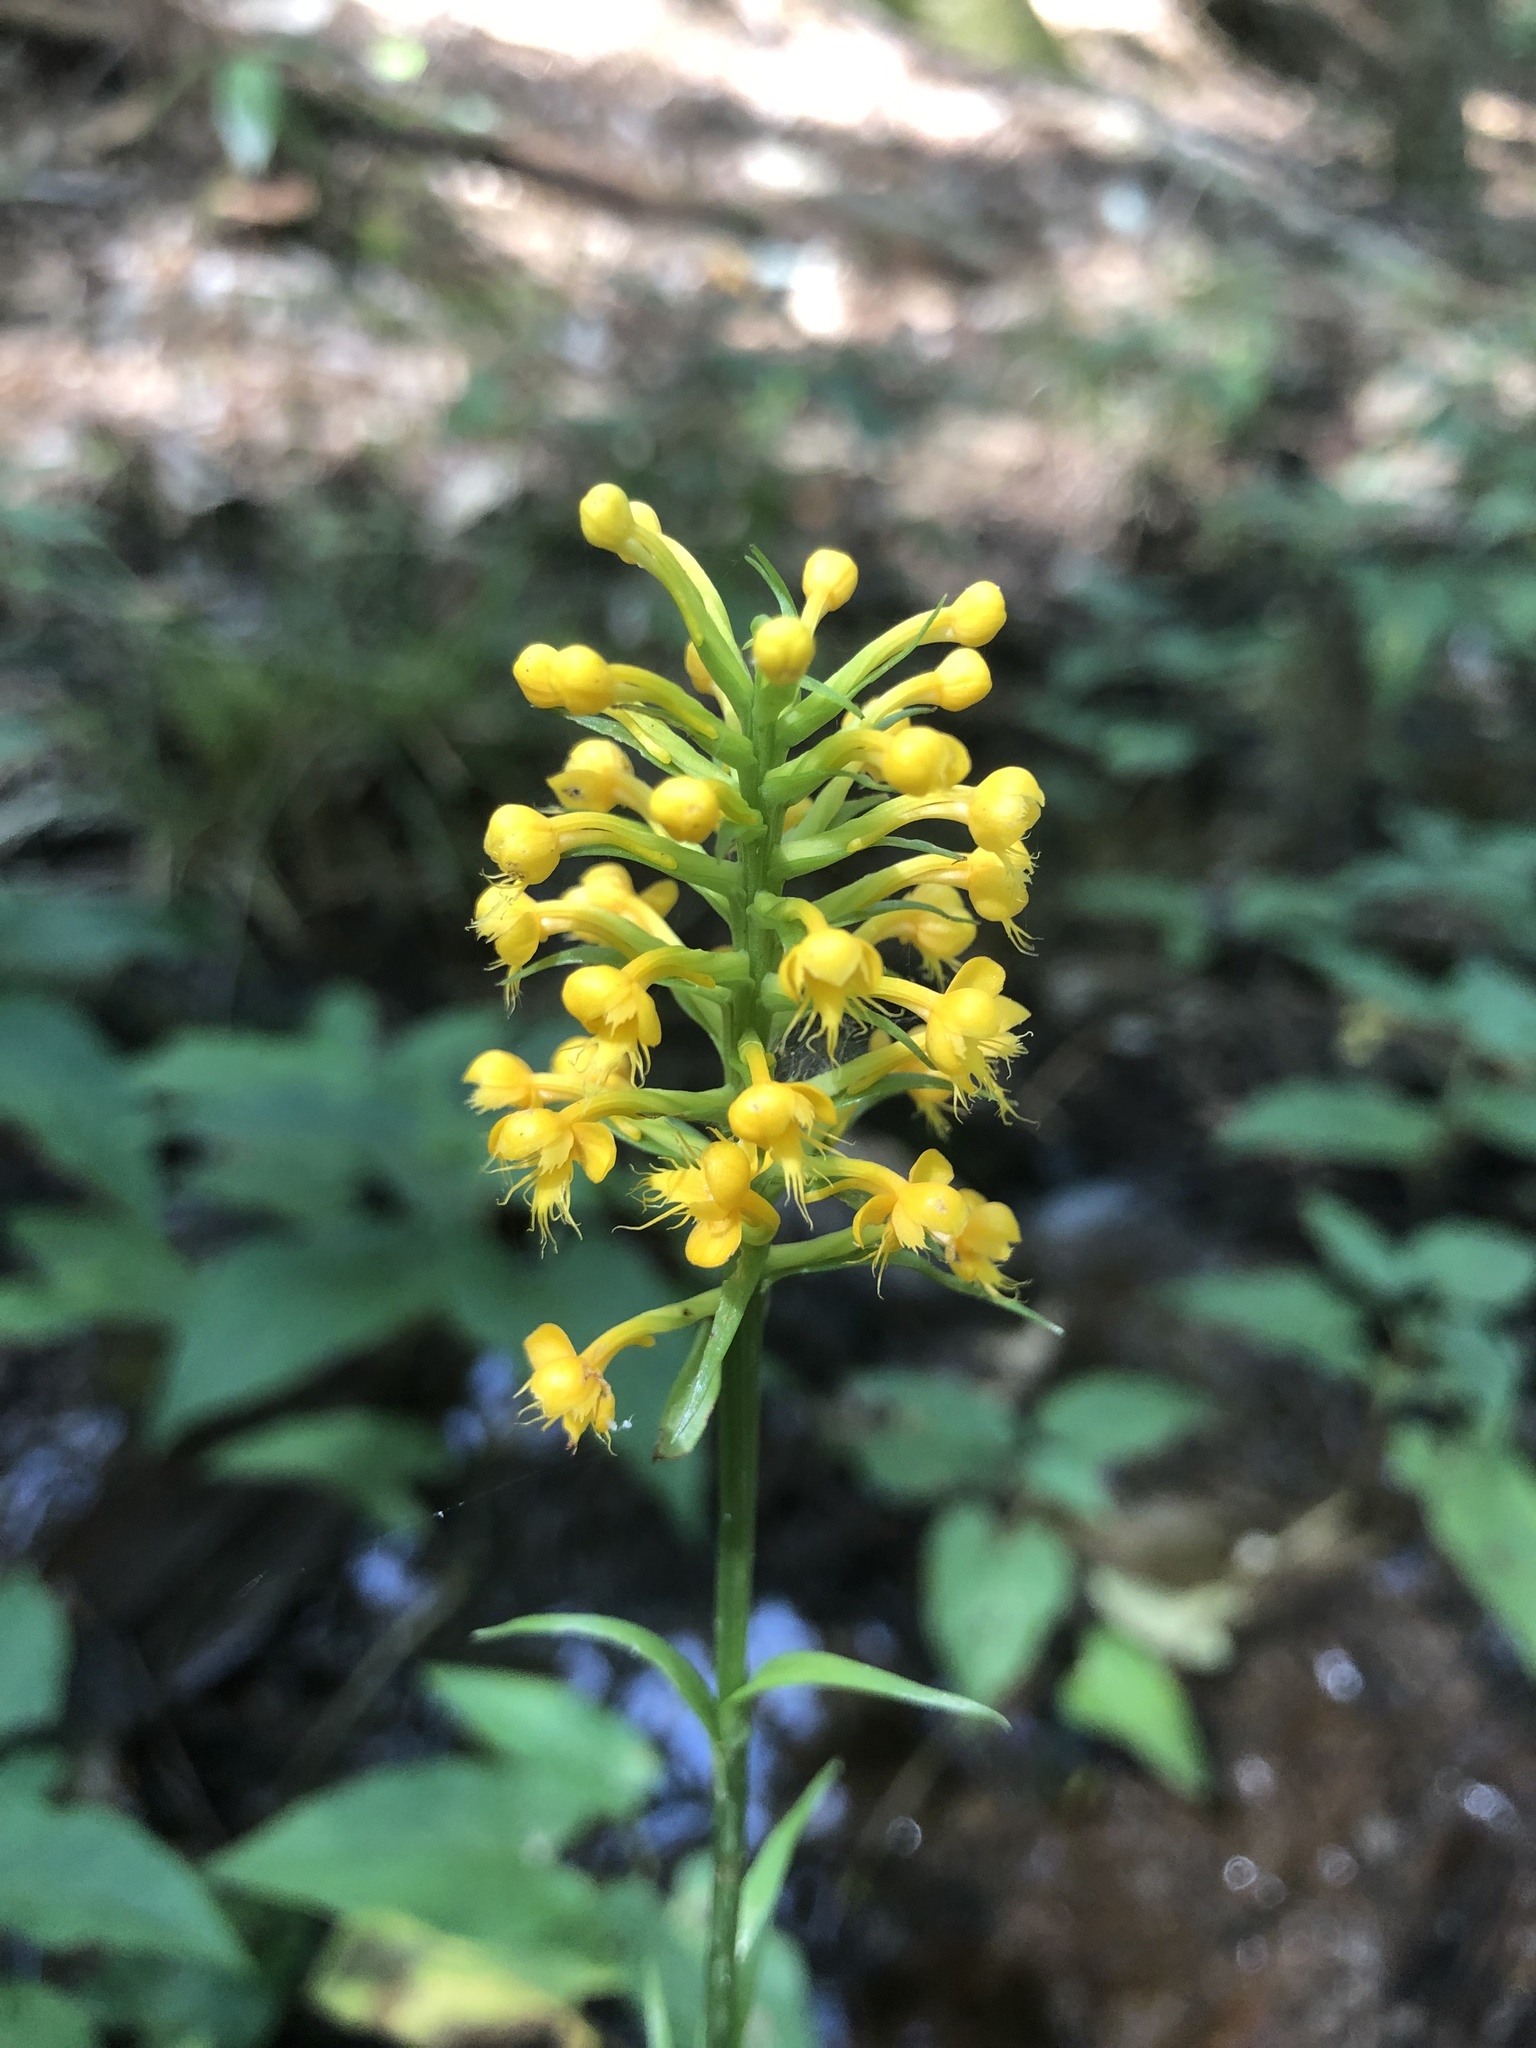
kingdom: Plantae
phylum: Tracheophyta
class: Liliopsida
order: Asparagales
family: Orchidaceae
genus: Platanthera
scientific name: Platanthera cristata
